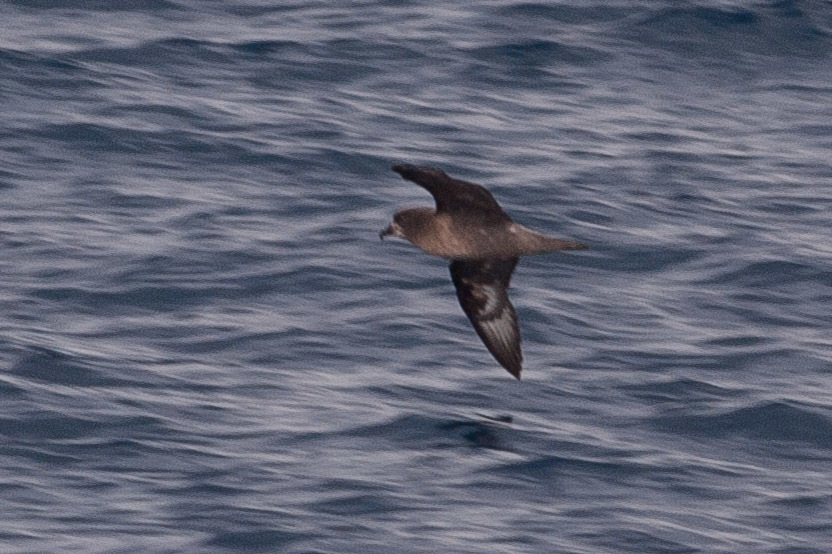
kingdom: Animalia
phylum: Chordata
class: Aves
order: Procellariiformes
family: Procellariidae
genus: Pterodroma
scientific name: Pterodroma solandri
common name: Providence petrel
